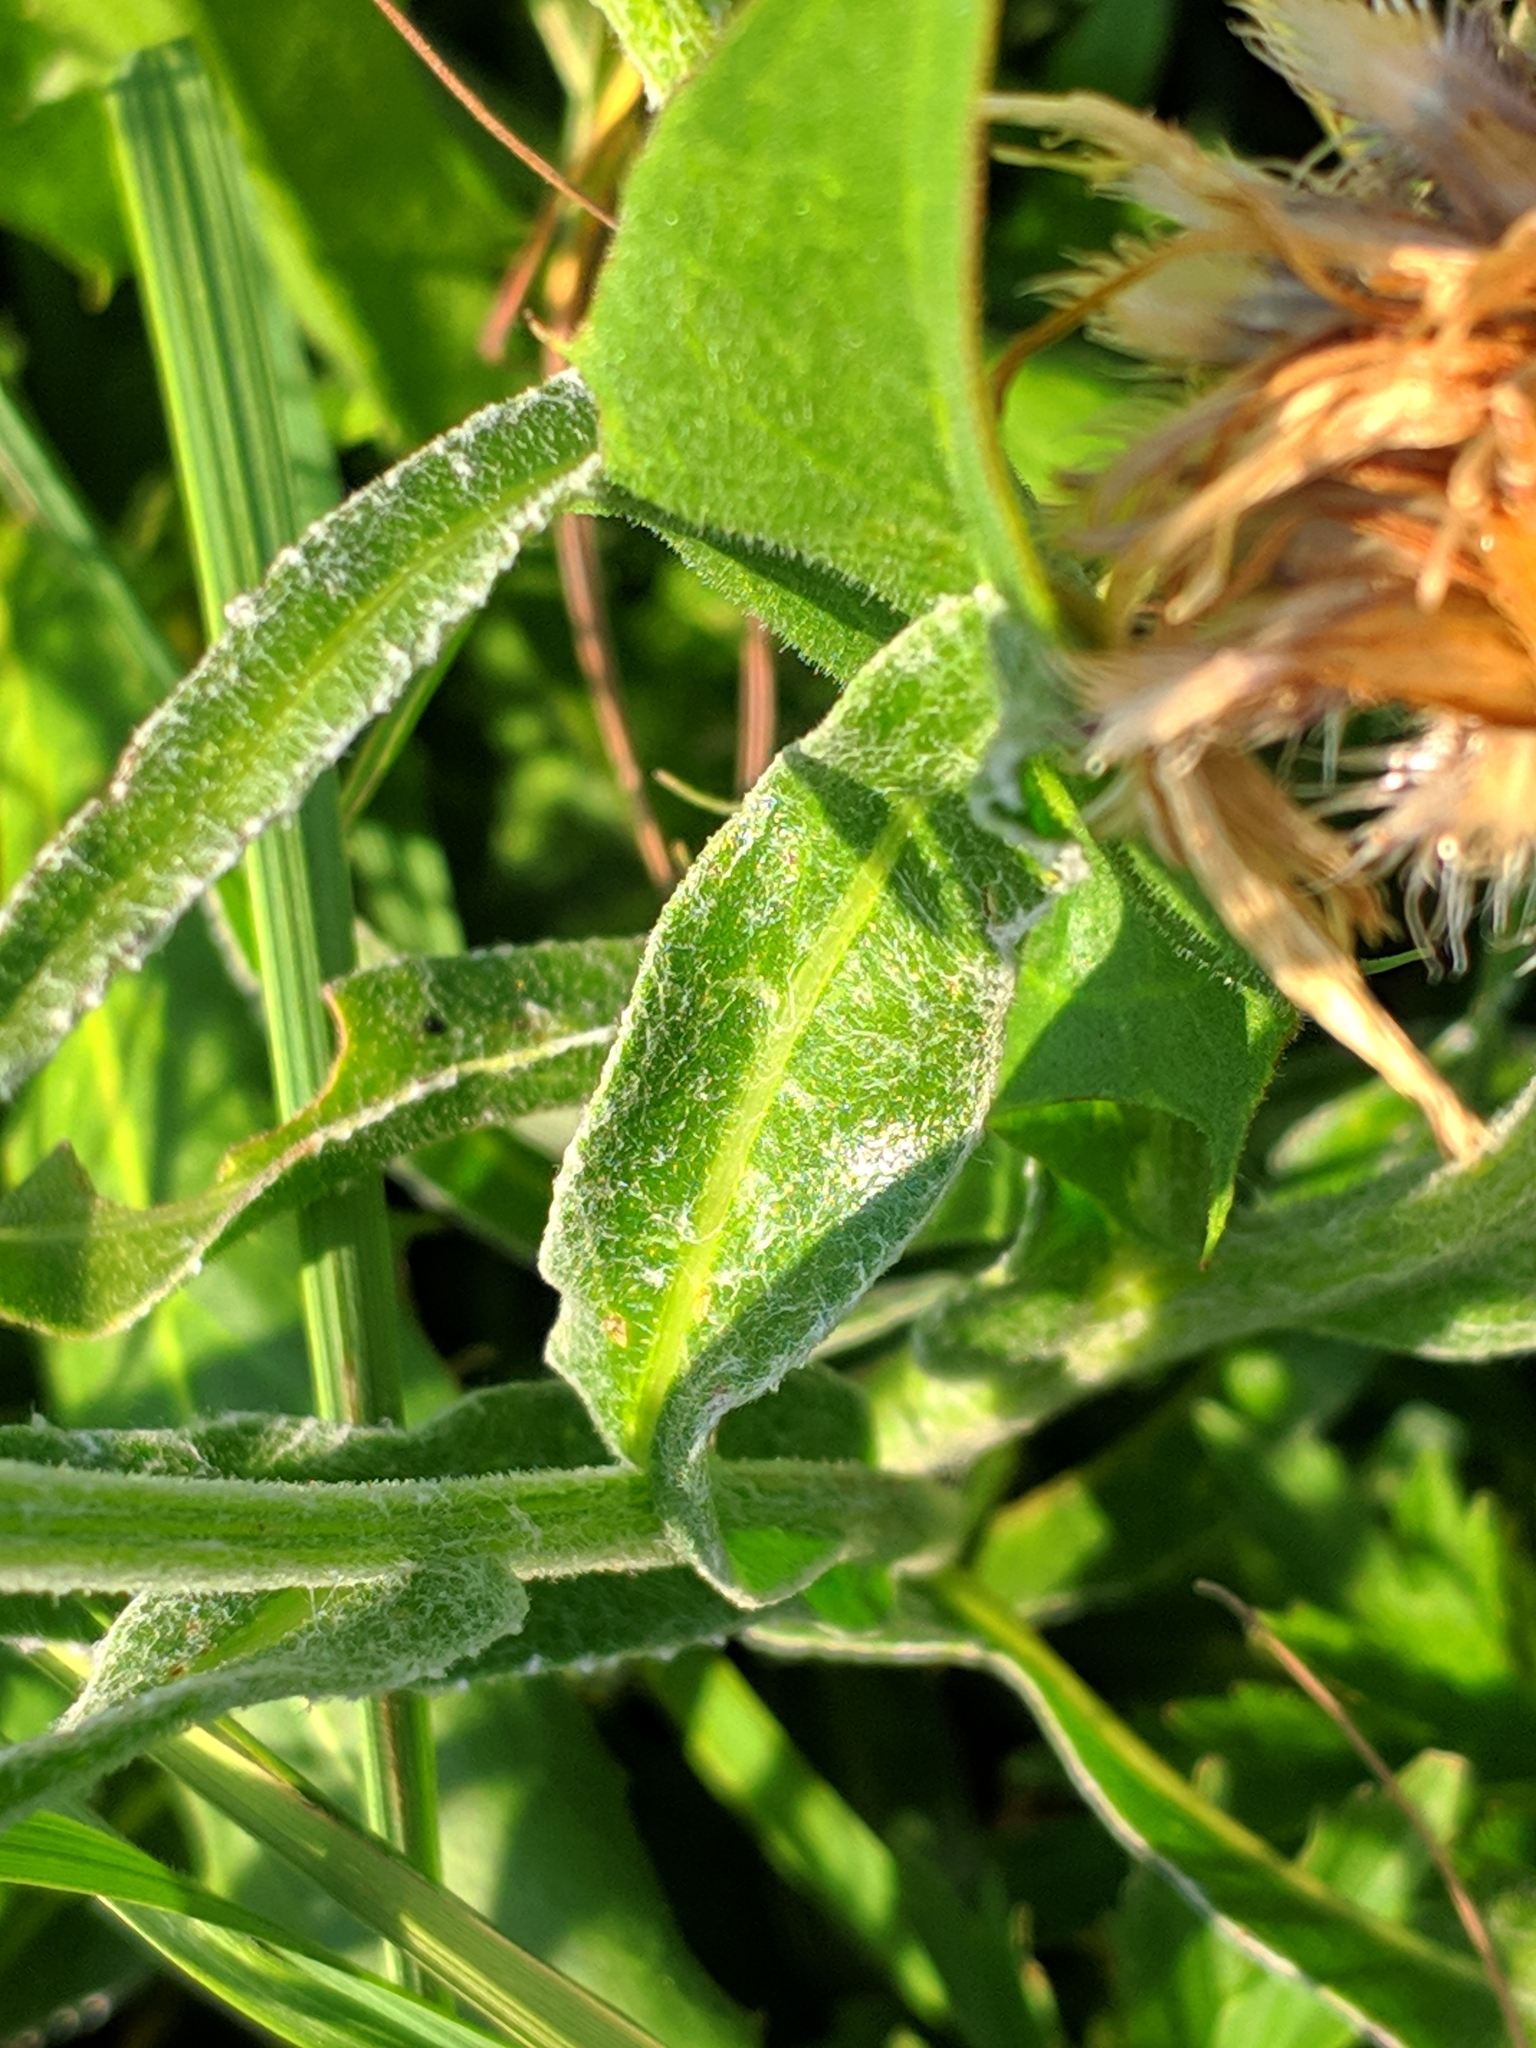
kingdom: Plantae
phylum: Tracheophyta
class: Magnoliopsida
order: Asterales
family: Asteraceae
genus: Centaurea
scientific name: Centaurea cheiranthifolia
